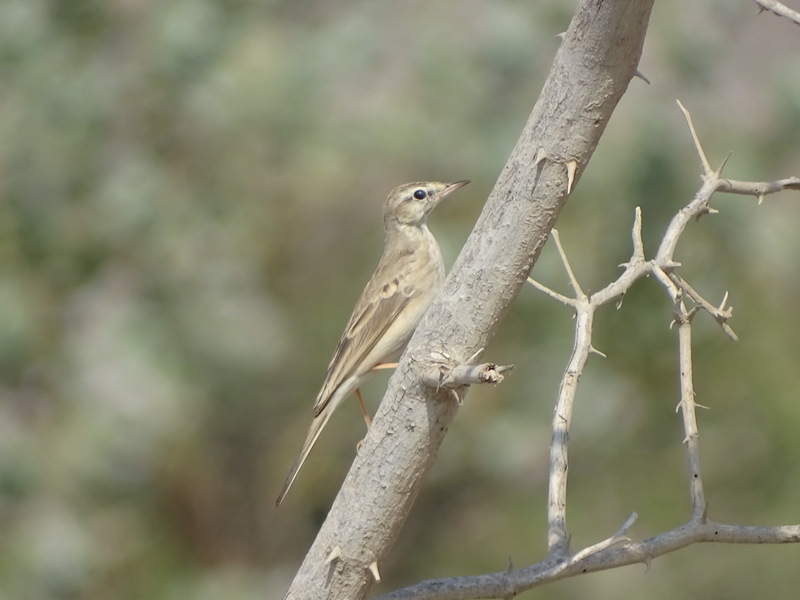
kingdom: Animalia
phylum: Chordata
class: Aves
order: Passeriformes
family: Motacillidae
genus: Anthus
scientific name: Anthus similis
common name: Long-billed pipit
